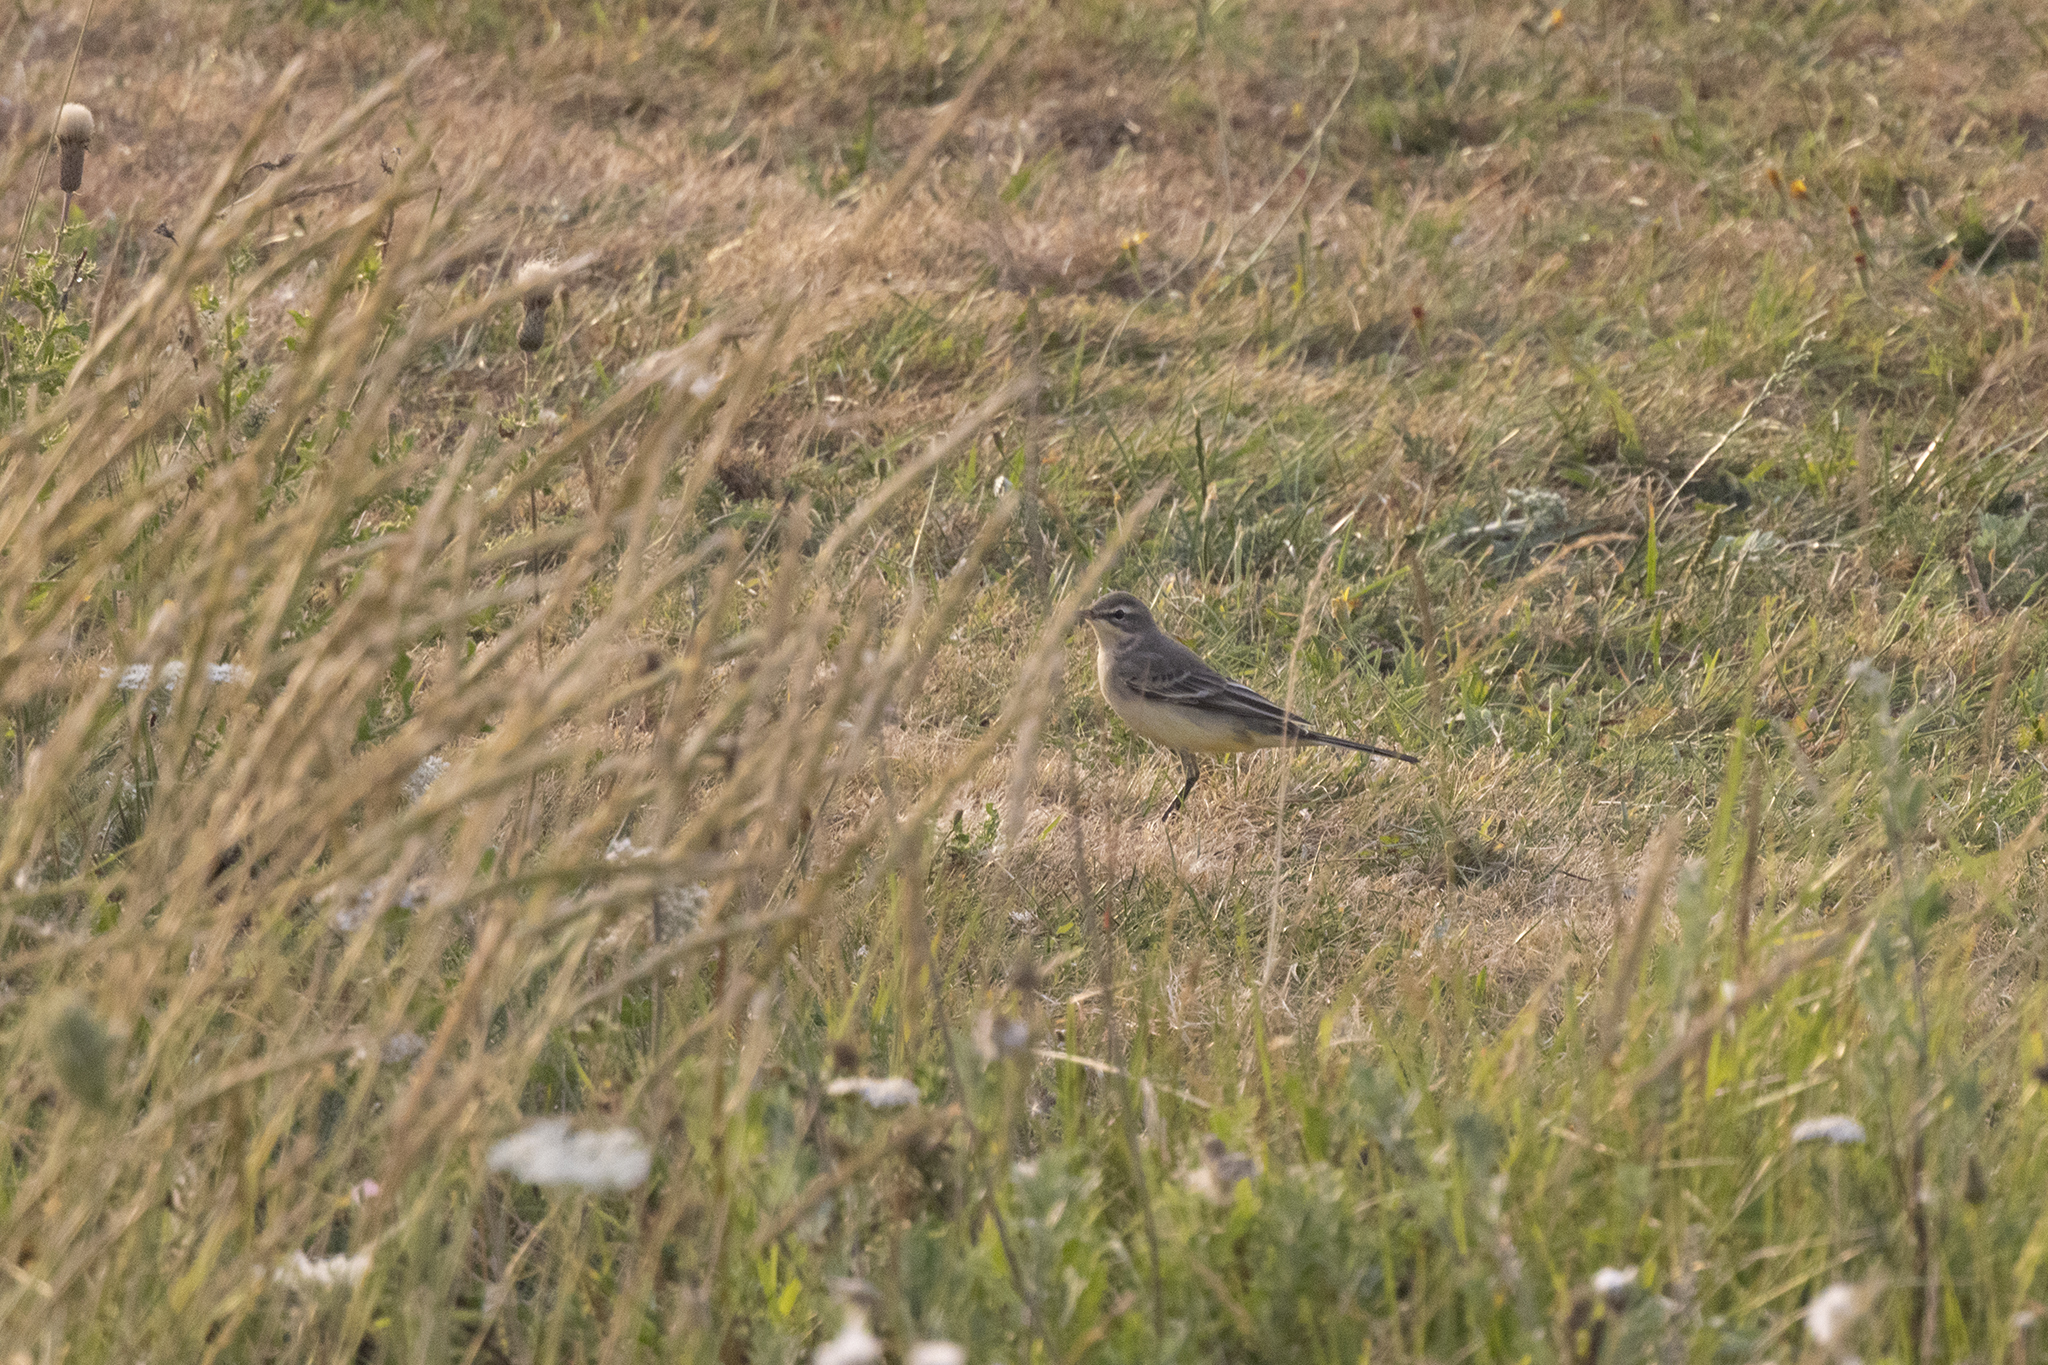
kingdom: Animalia
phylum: Chordata
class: Aves
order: Passeriformes
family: Motacillidae
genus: Motacilla
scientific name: Motacilla flava
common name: Western yellow wagtail
